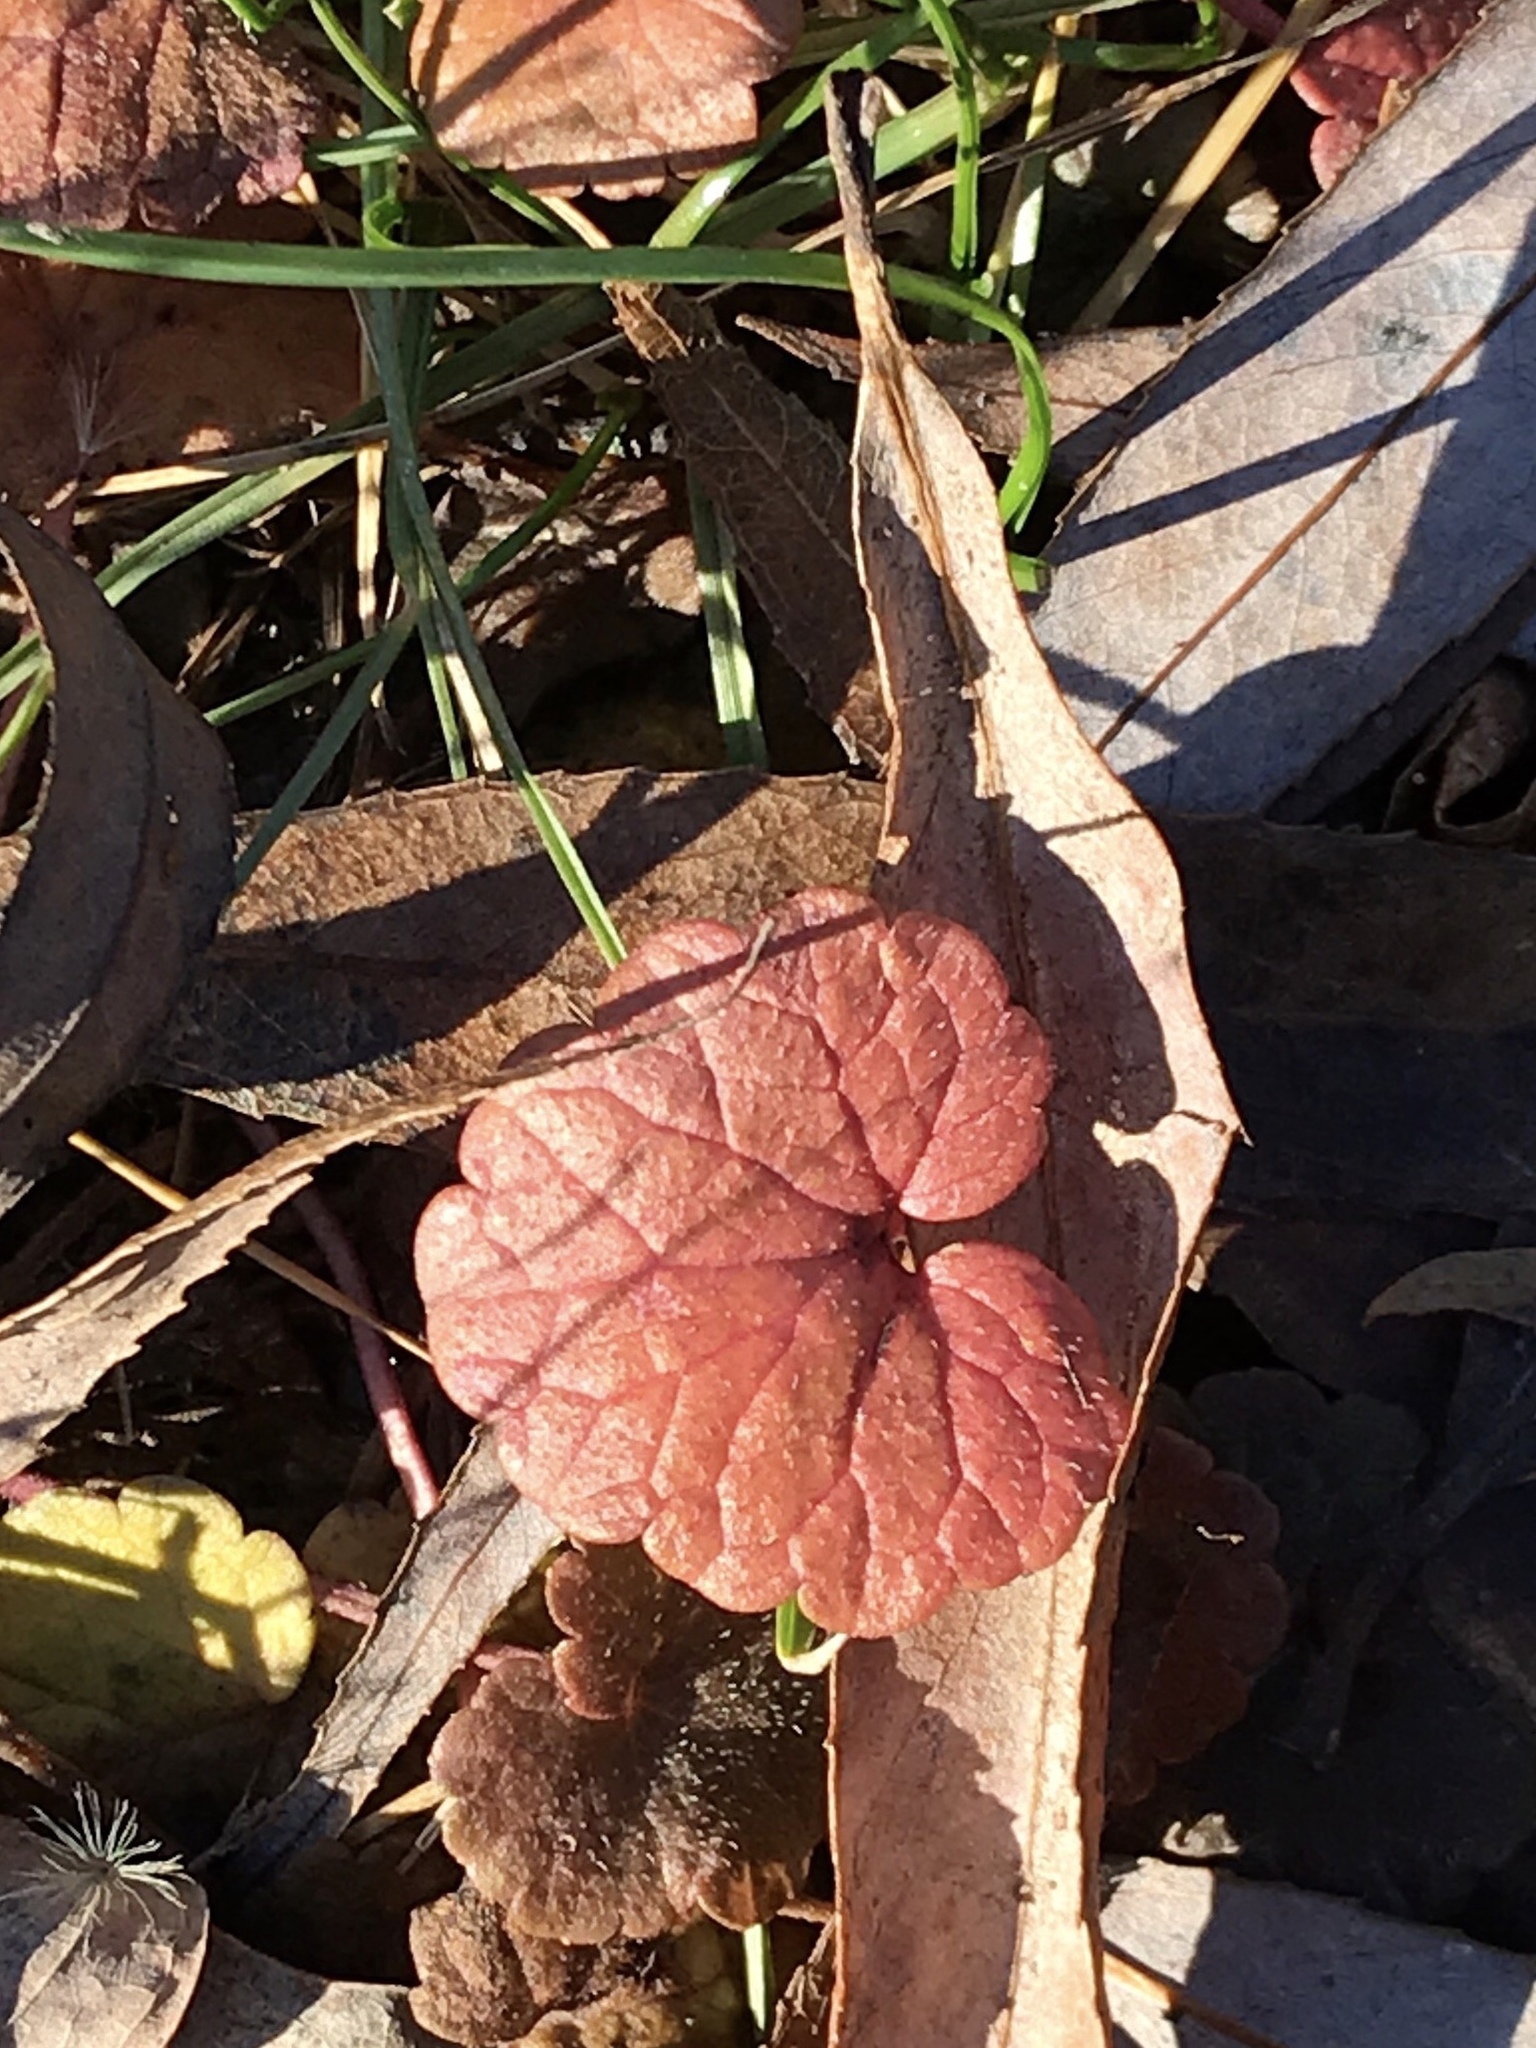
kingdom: Plantae
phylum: Tracheophyta
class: Magnoliopsida
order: Lamiales
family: Lamiaceae
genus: Glechoma
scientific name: Glechoma hederacea
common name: Ground ivy
